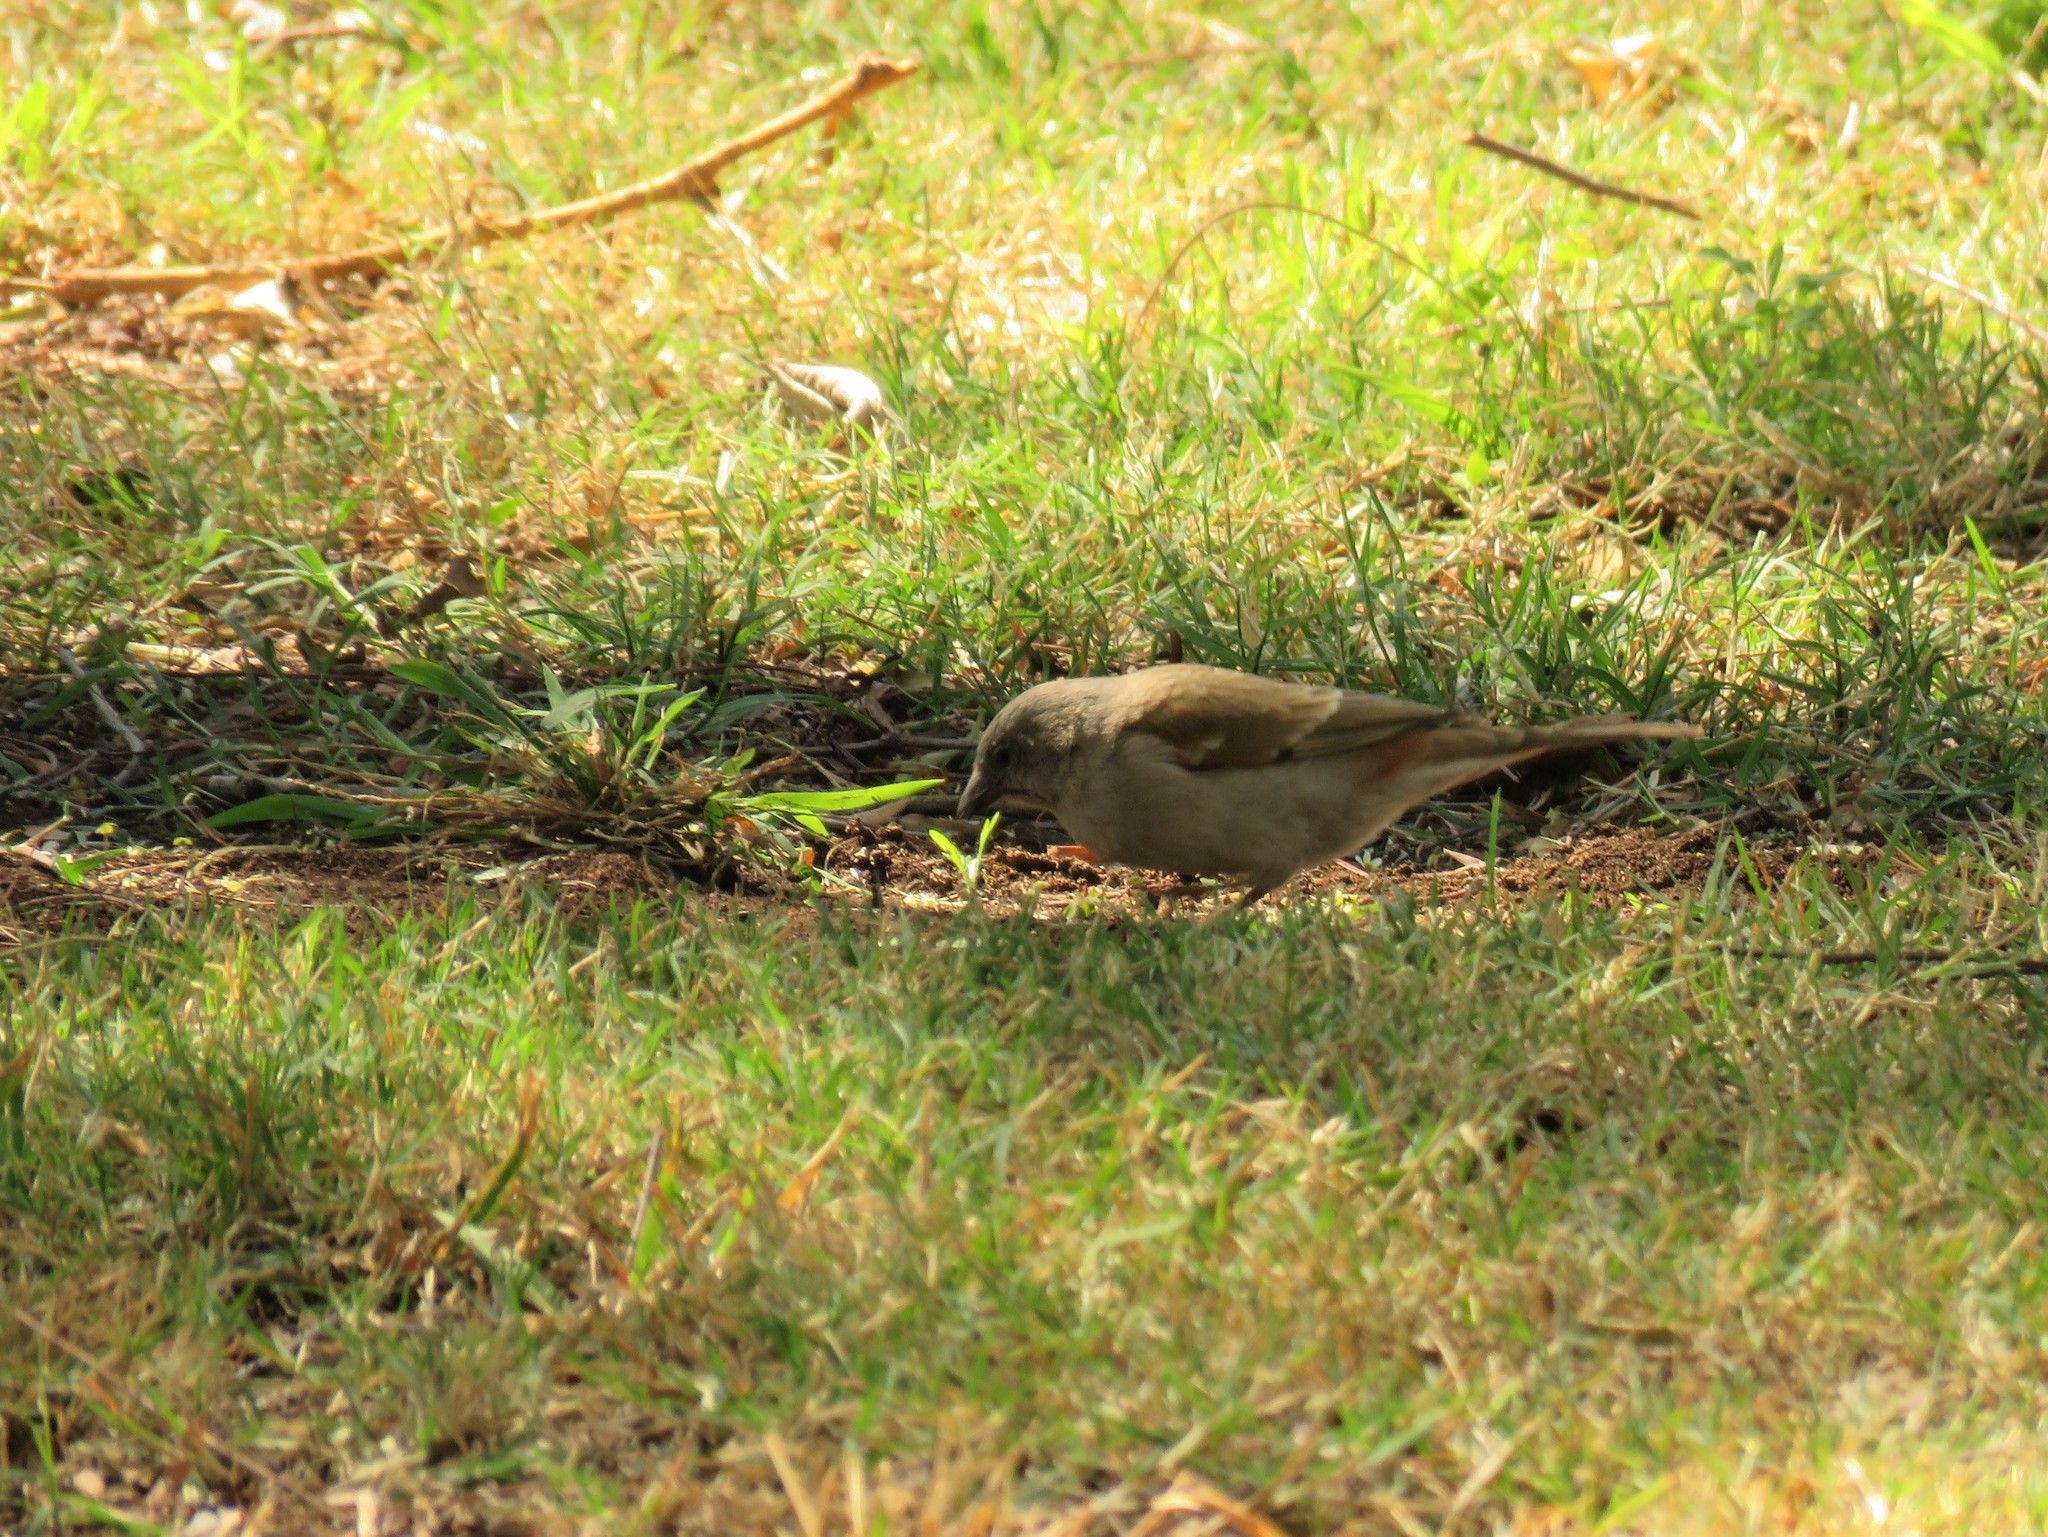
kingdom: Animalia
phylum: Chordata
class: Aves
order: Passeriformes
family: Passeridae
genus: Passer
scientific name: Passer diffusus
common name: Southern grey-headed sparrow
